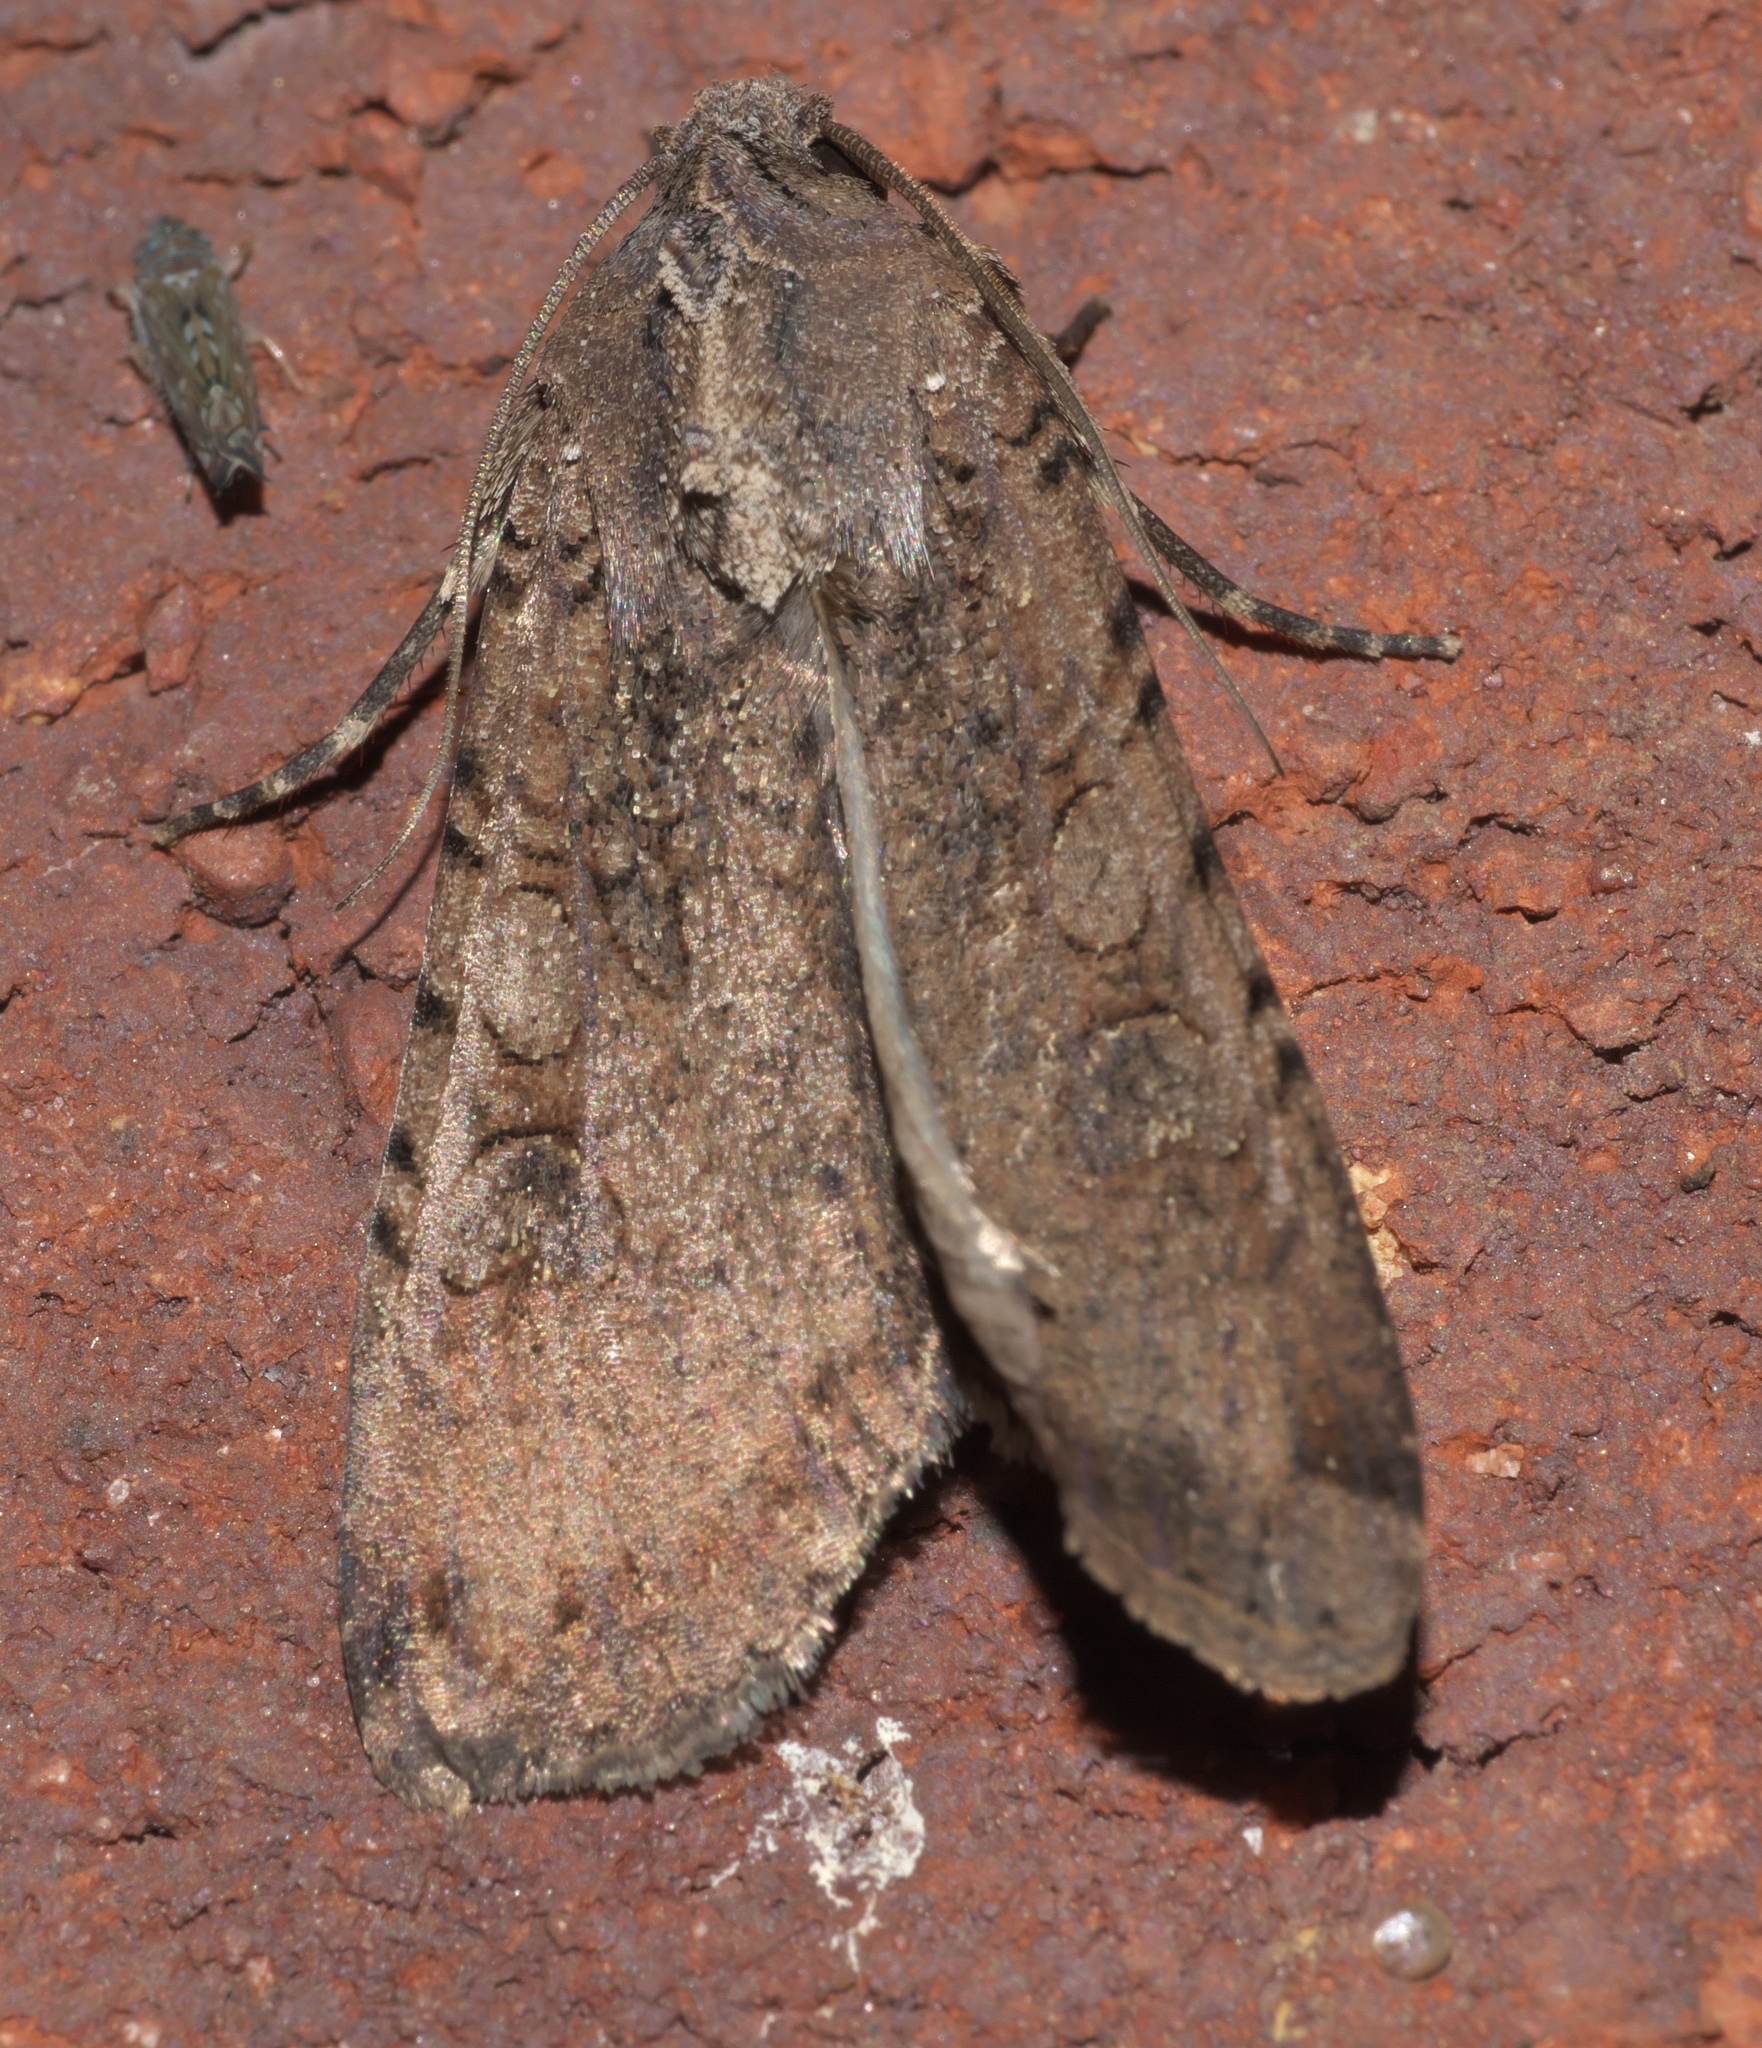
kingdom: Animalia
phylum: Arthropoda
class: Insecta
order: Lepidoptera
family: Noctuidae
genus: Peridroma
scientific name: Peridroma saucia
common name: Pearly underwing
